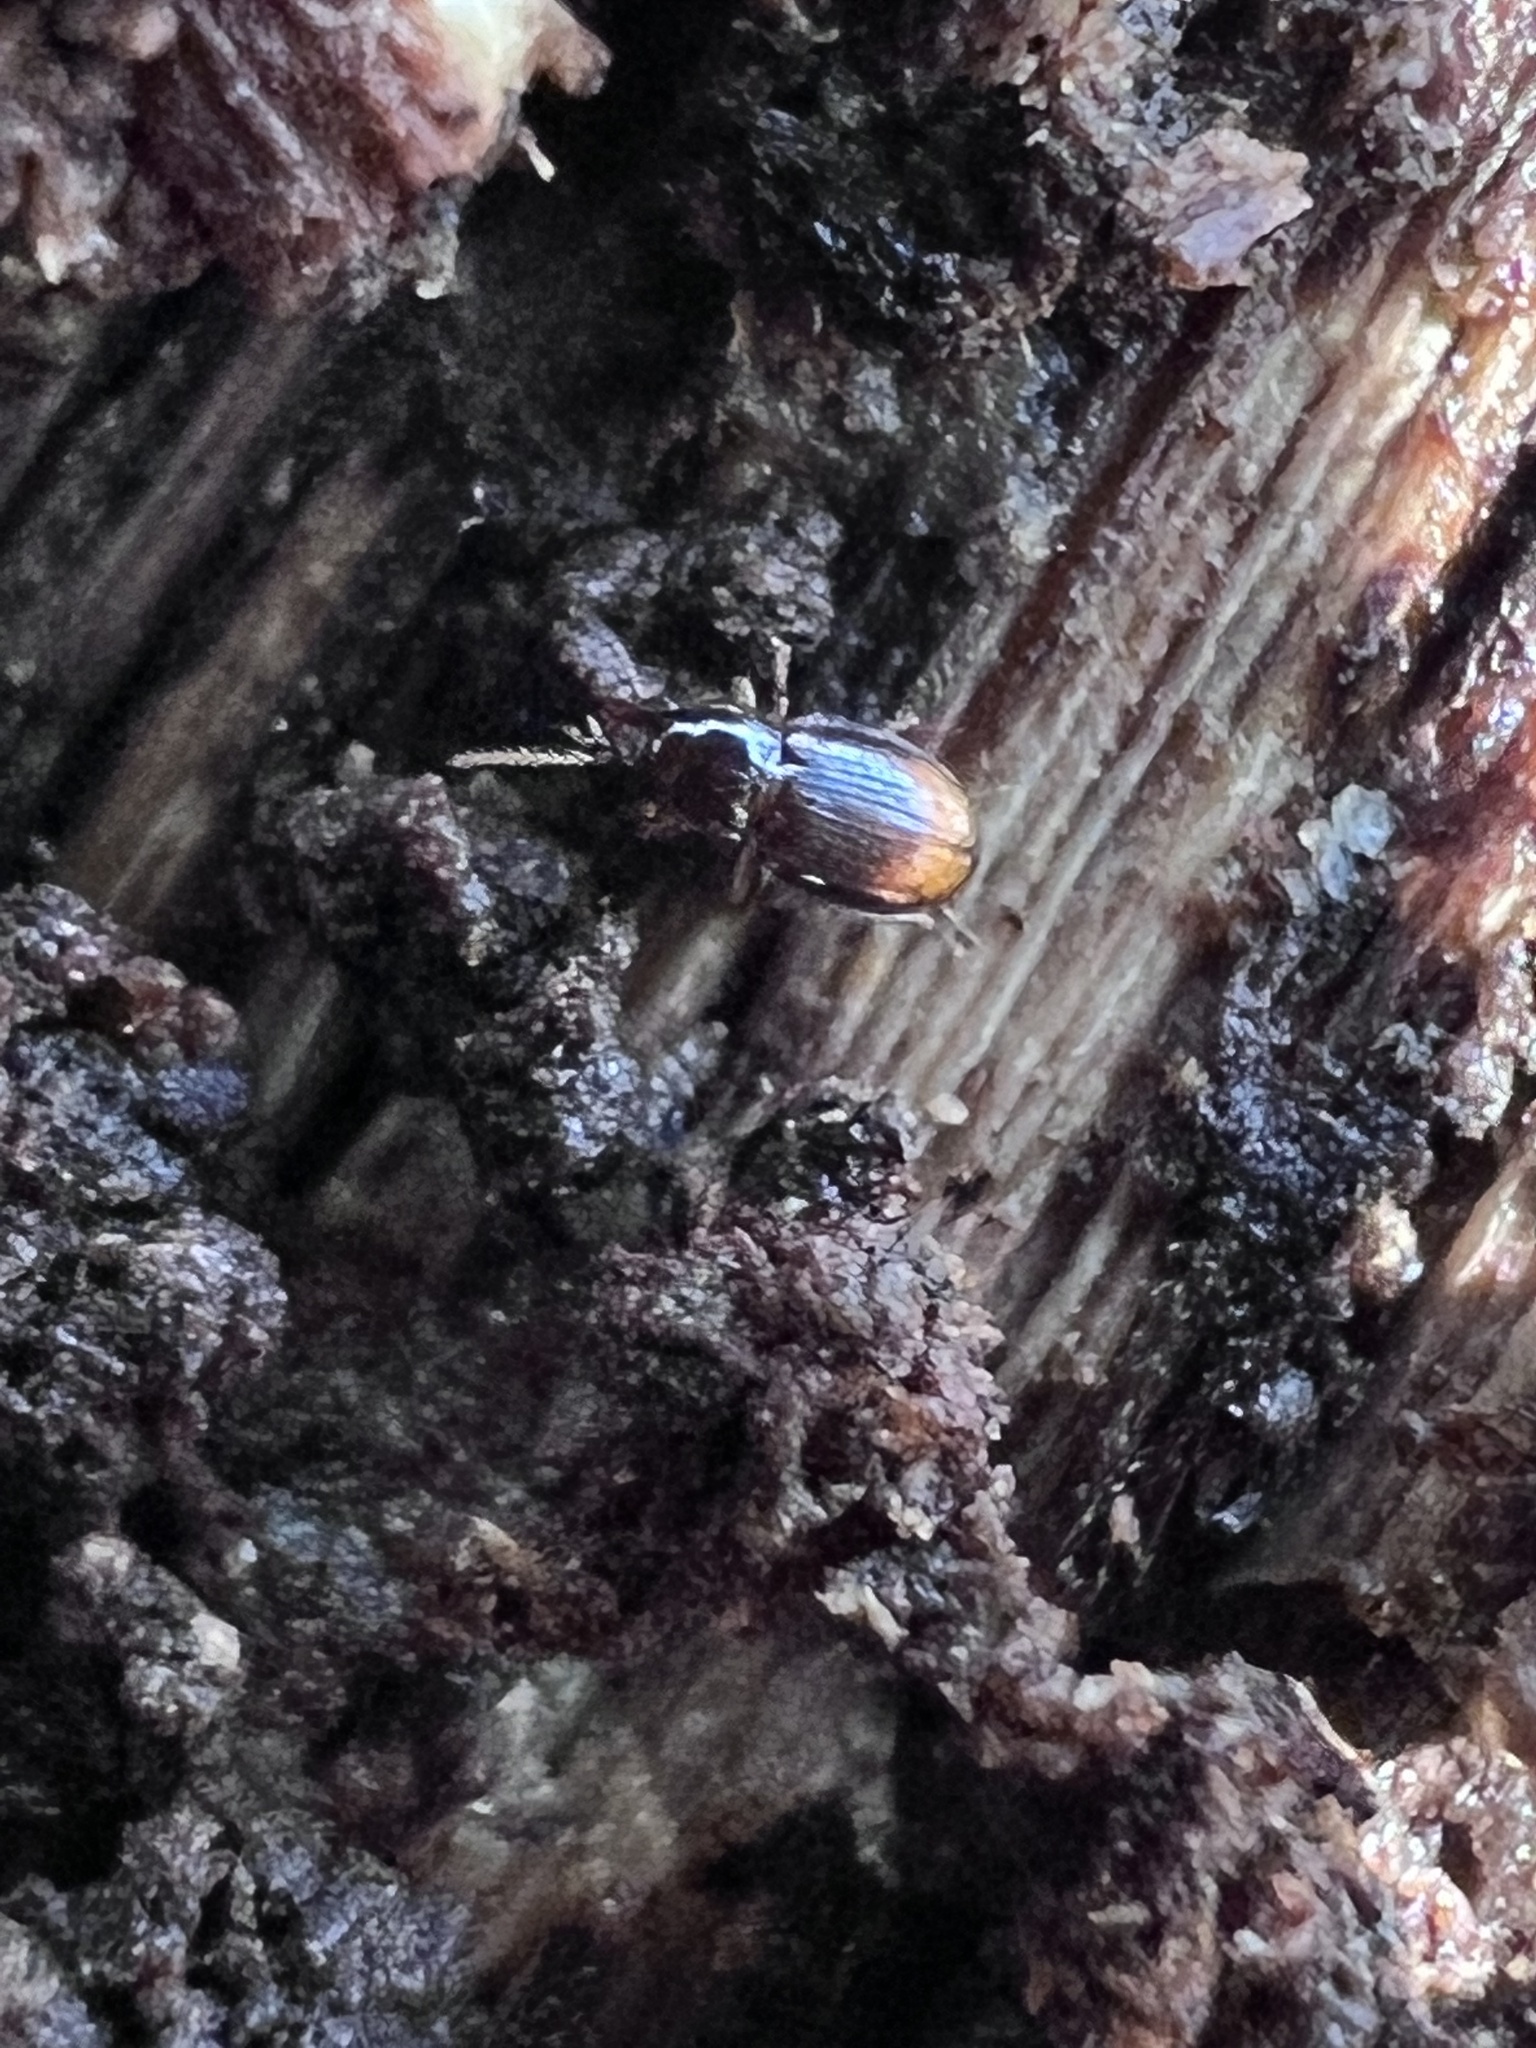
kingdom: Animalia
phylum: Arthropoda
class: Insecta
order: Coleoptera
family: Carabidae
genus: Mioptachys
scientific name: Mioptachys flavicauda
